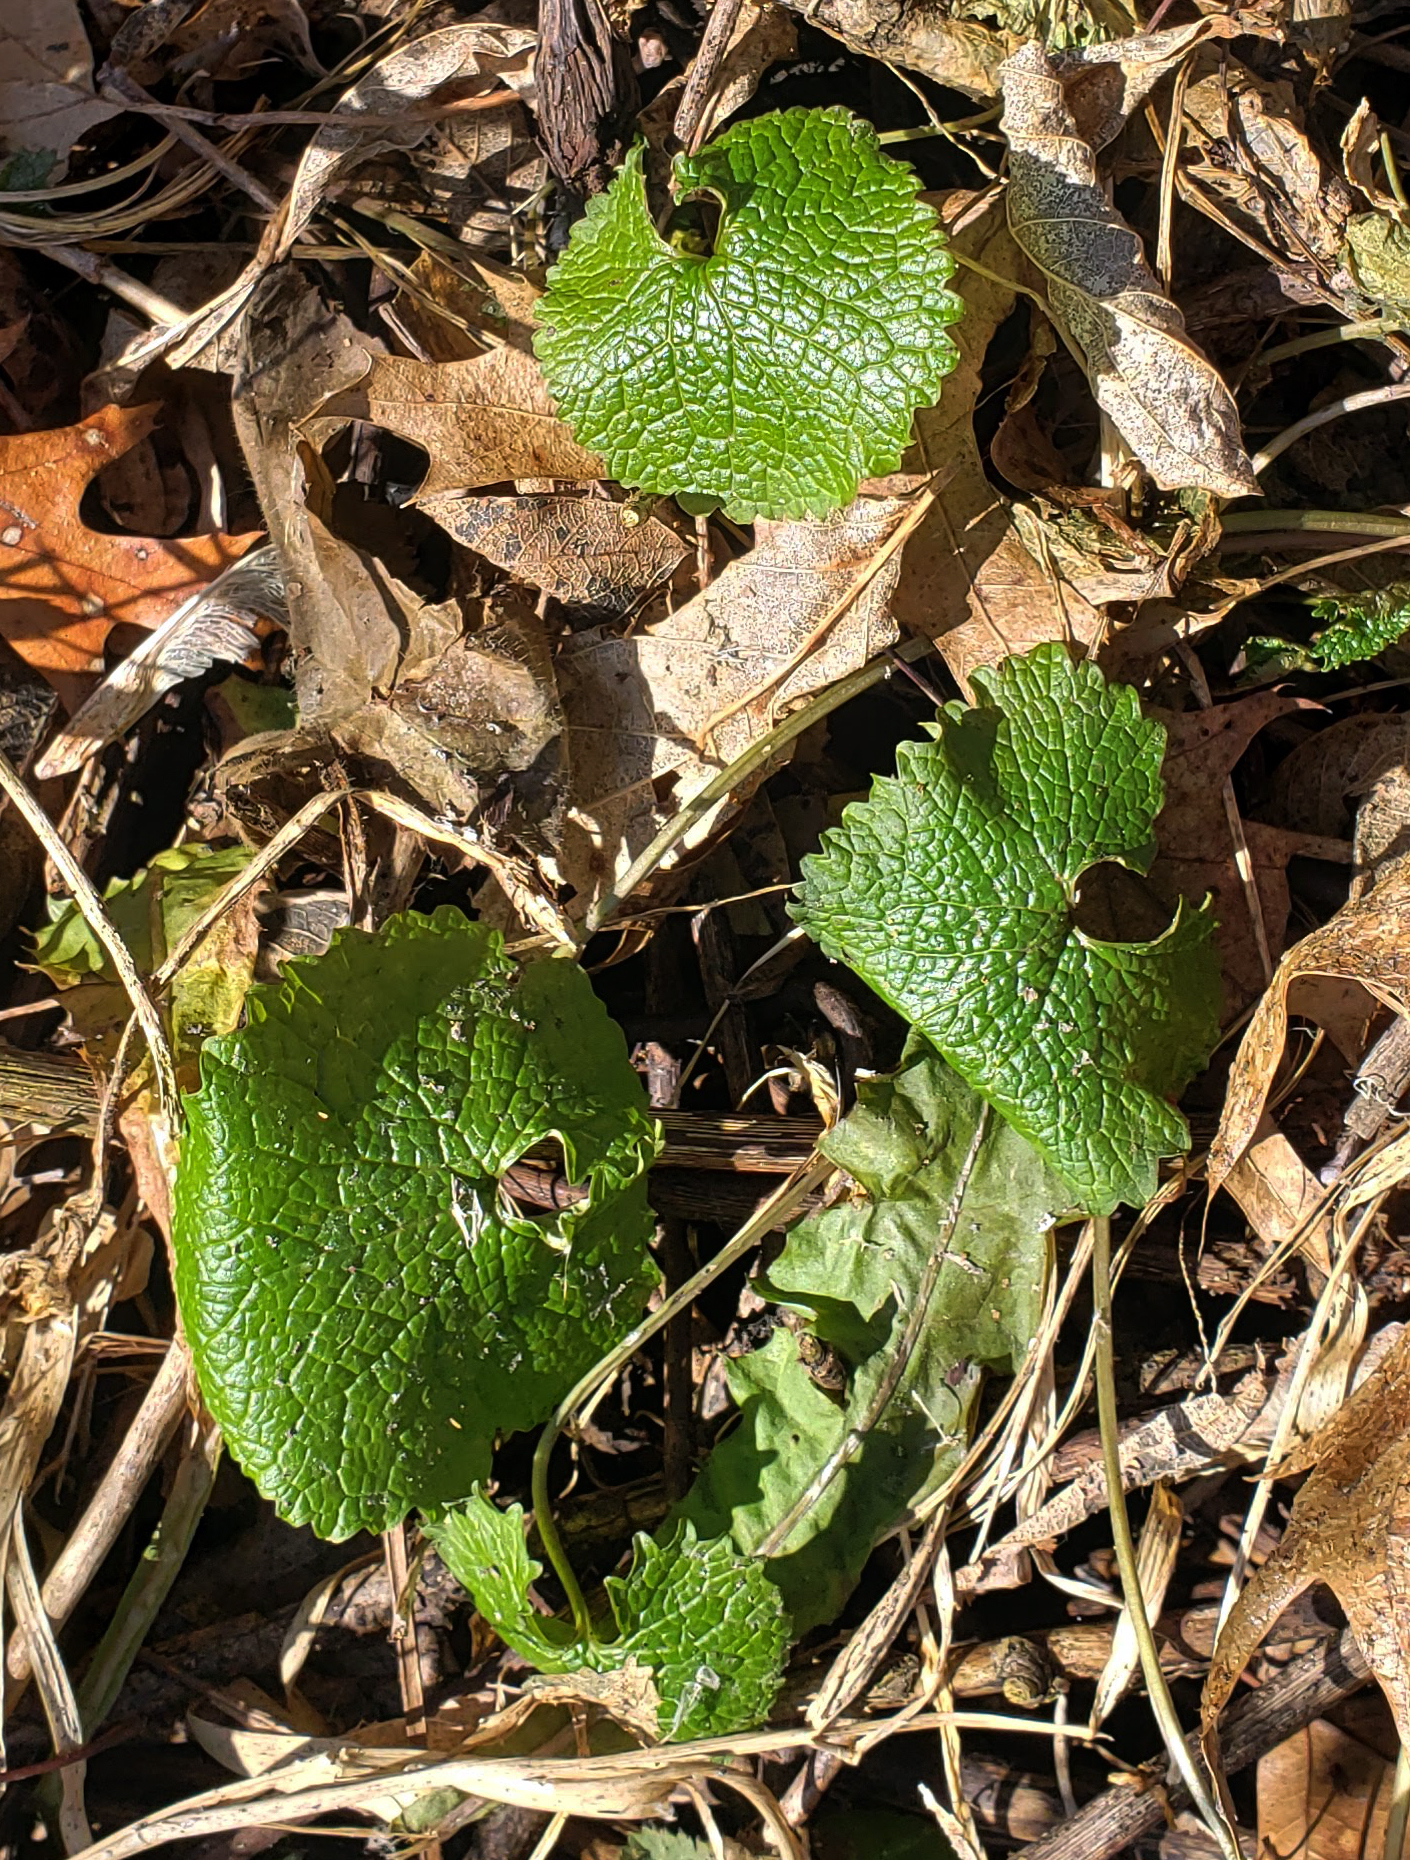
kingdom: Plantae
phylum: Tracheophyta
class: Magnoliopsida
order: Brassicales
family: Brassicaceae
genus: Alliaria
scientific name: Alliaria petiolata
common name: Garlic mustard
